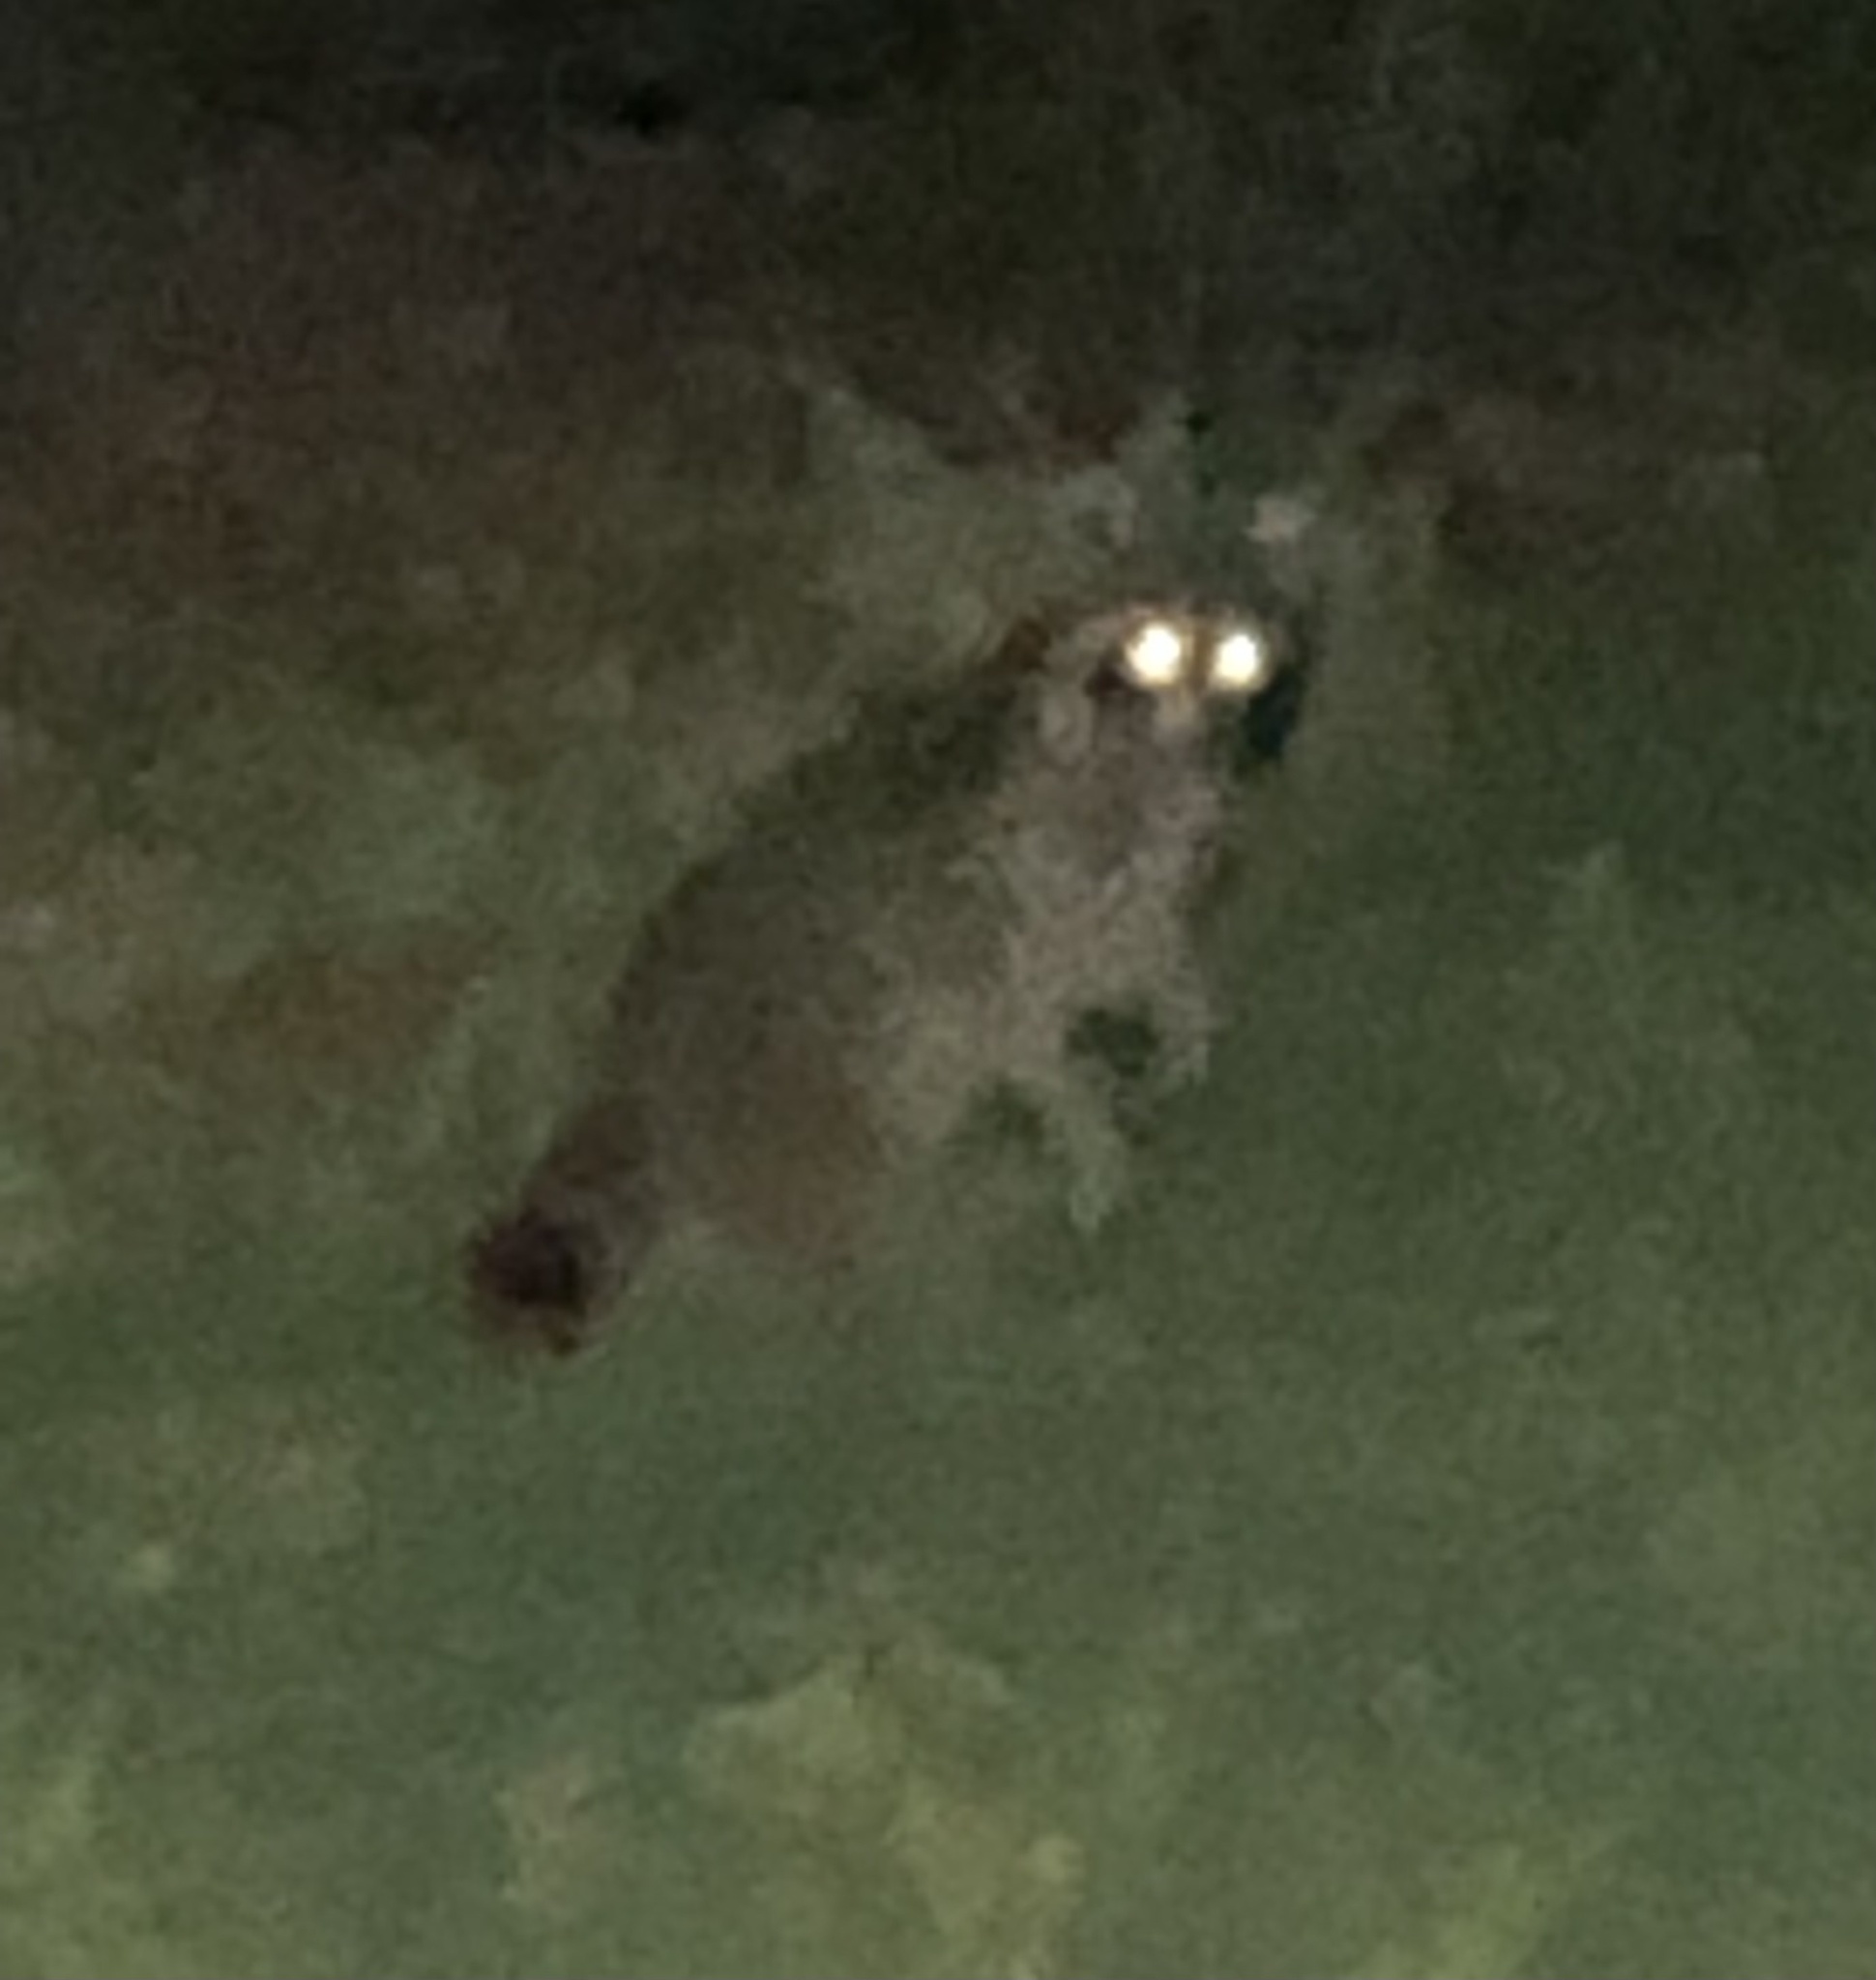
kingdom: Animalia
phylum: Chordata
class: Mammalia
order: Carnivora
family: Procyonidae
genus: Procyon
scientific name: Procyon lotor
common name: Raccoon
